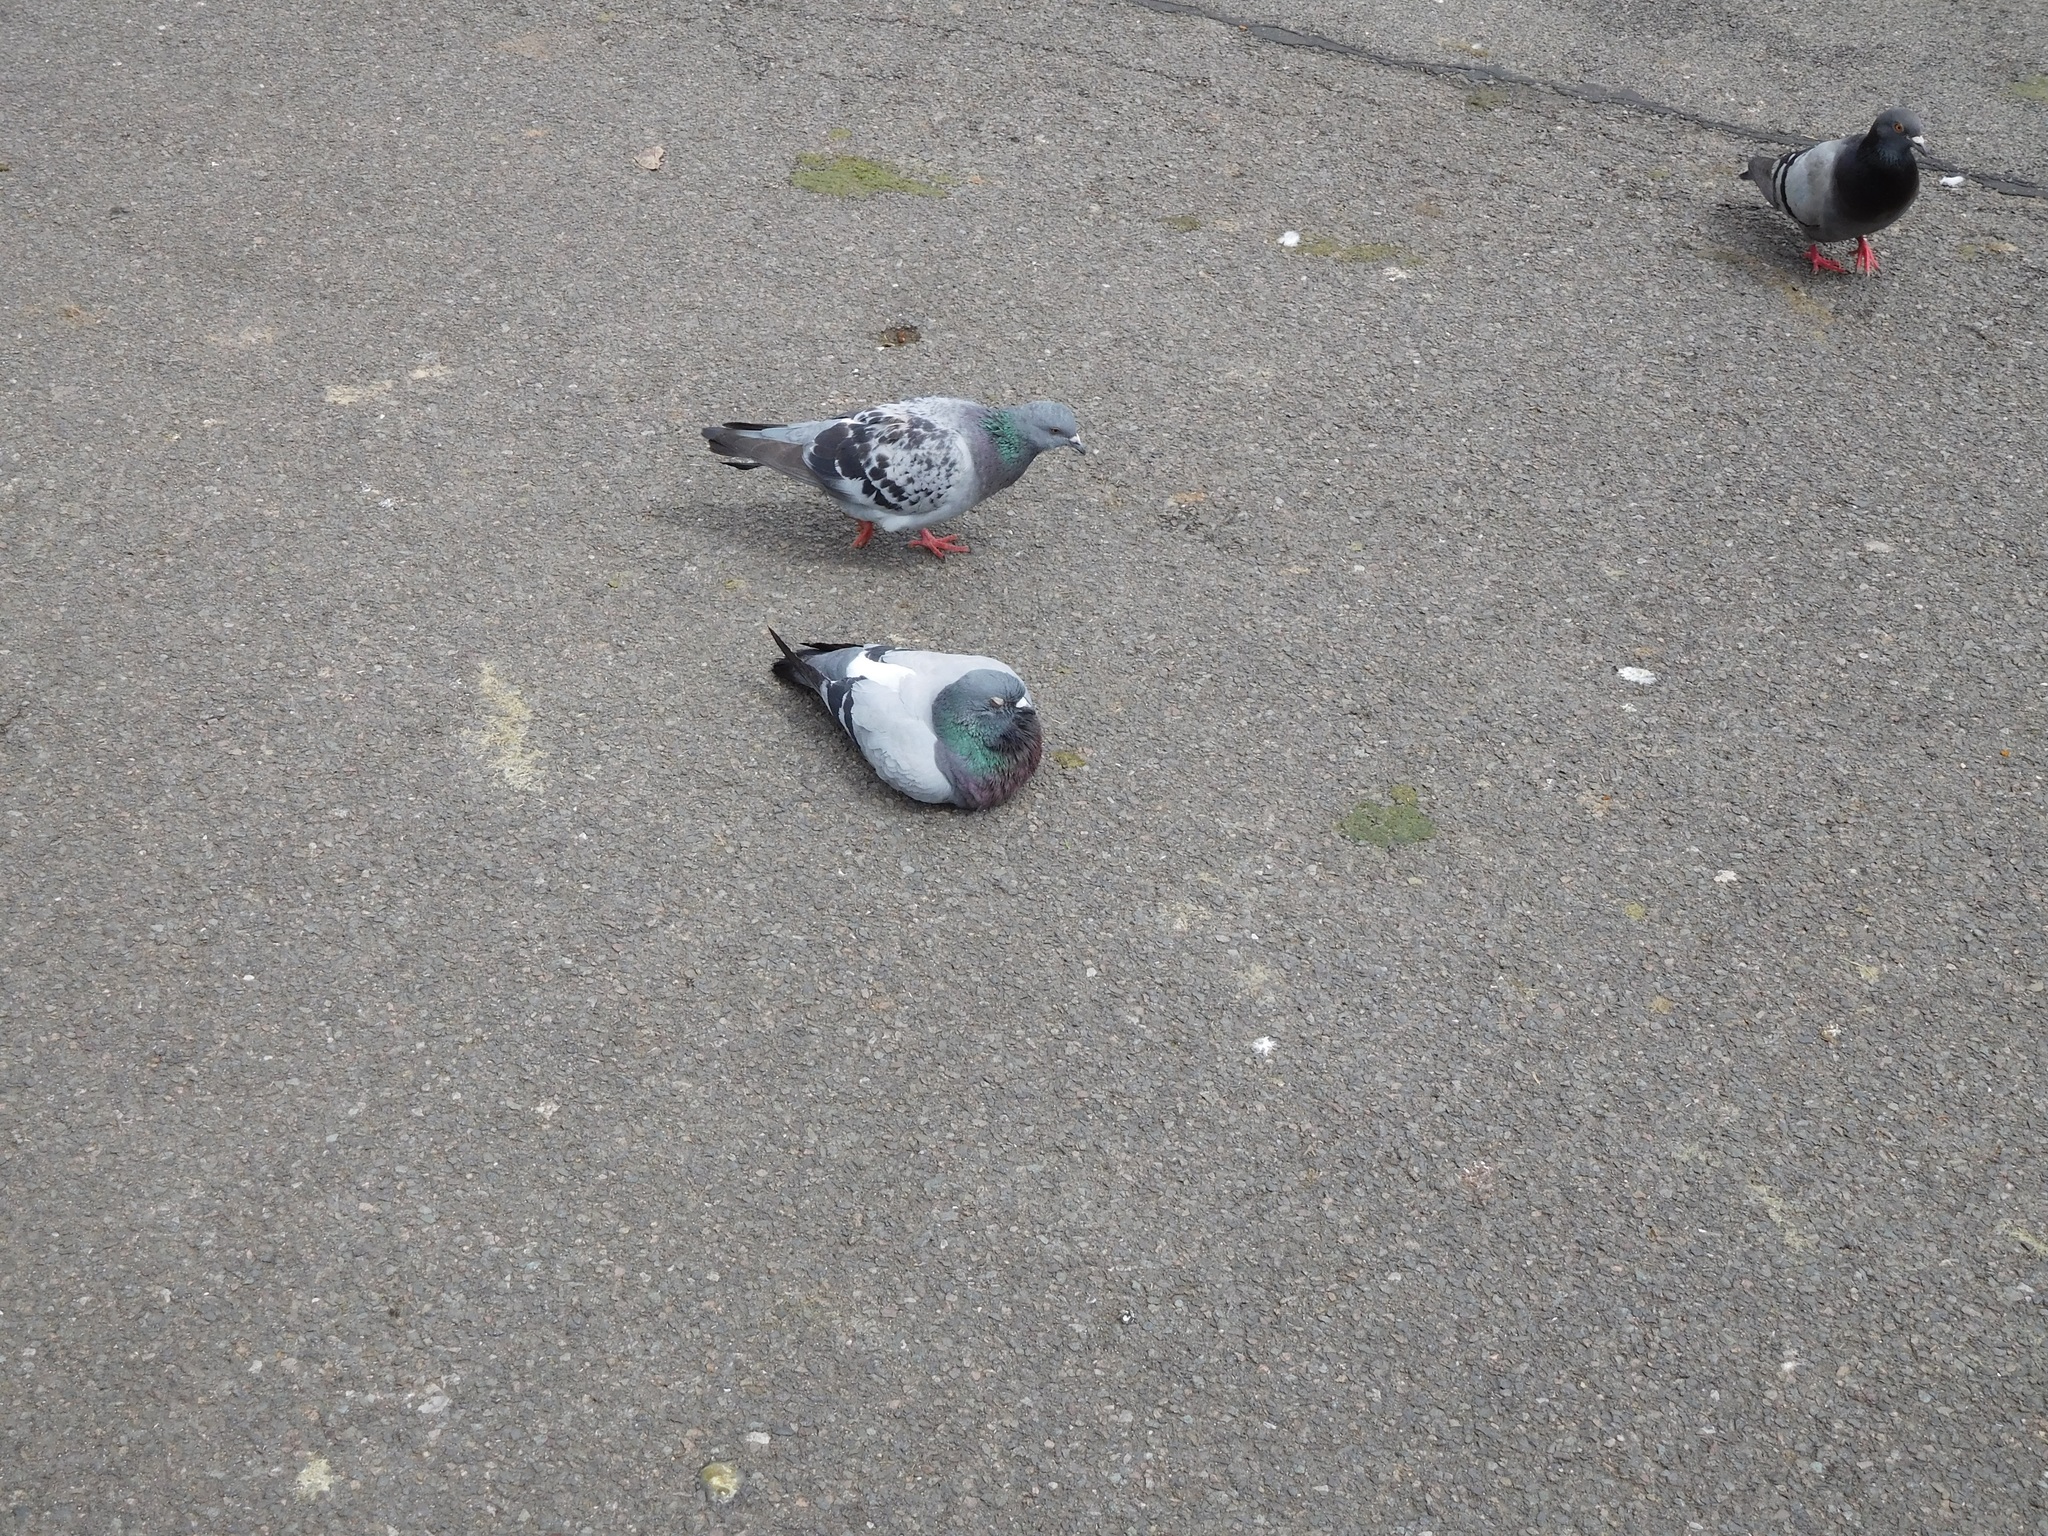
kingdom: Animalia
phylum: Chordata
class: Aves
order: Columbiformes
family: Columbidae
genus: Columba
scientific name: Columba livia
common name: Rock pigeon
